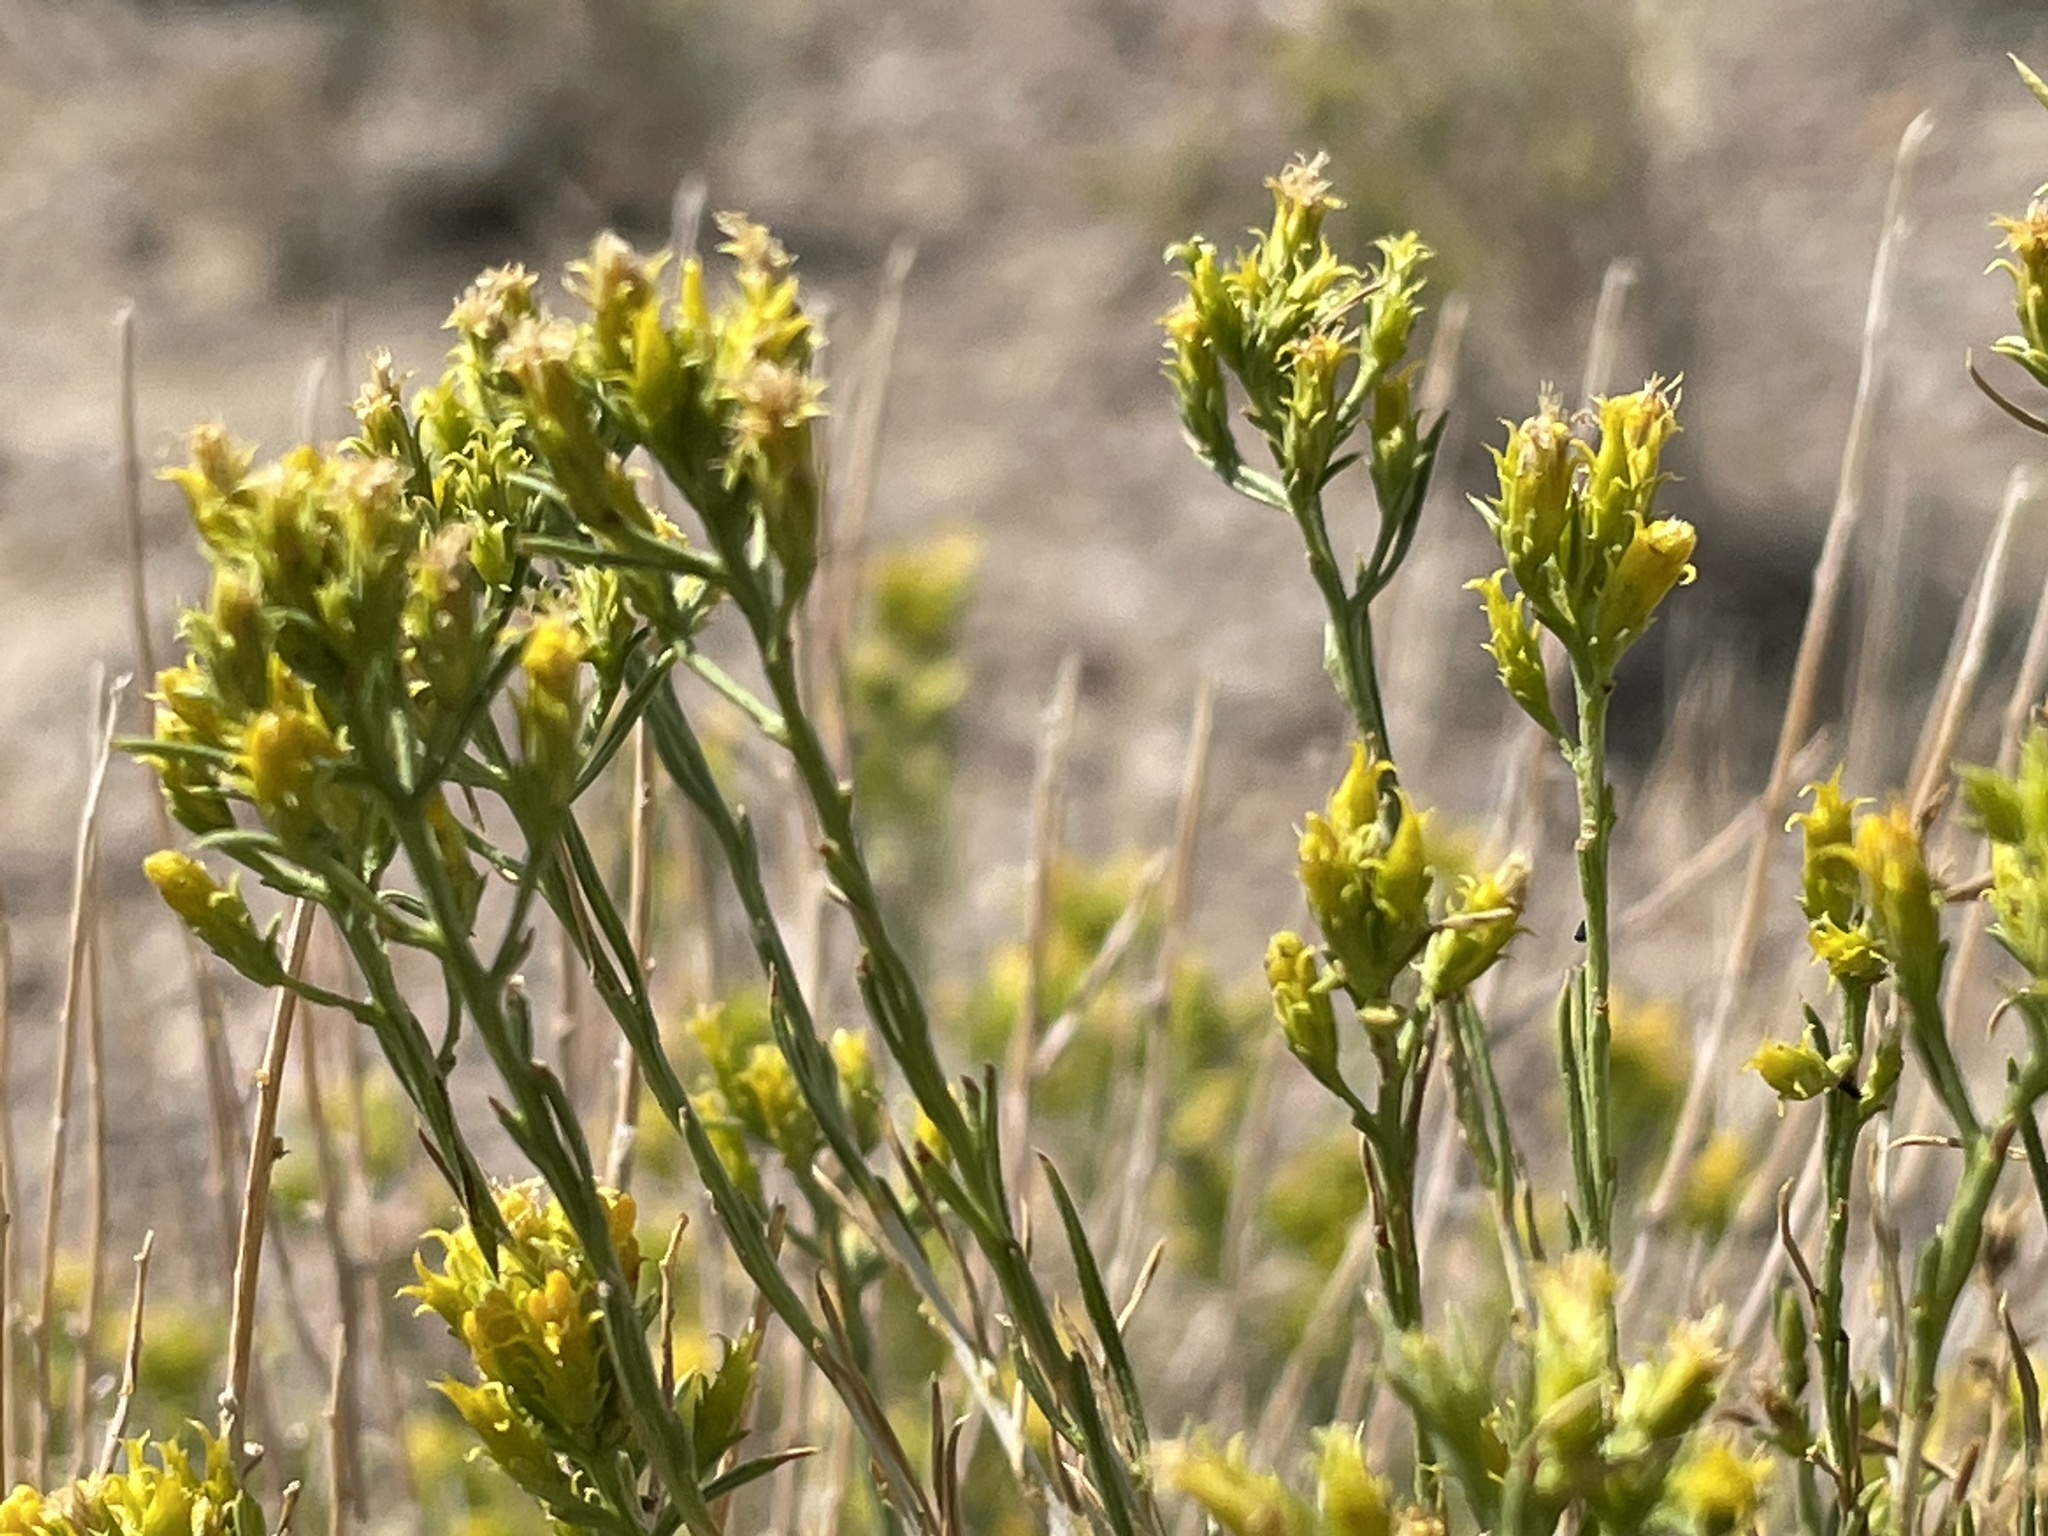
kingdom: Plantae
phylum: Tracheophyta
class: Magnoliopsida
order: Asterales
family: Asteraceae
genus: Chrysothamnus
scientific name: Chrysothamnus greenei
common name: Greene's rabbitbrush
